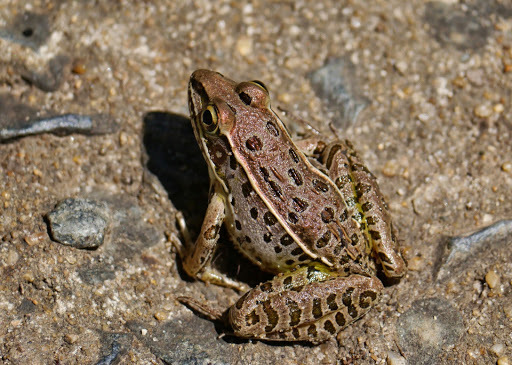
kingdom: Animalia
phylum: Chordata
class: Amphibia
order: Anura
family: Ranidae
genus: Lithobates
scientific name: Lithobates sphenocephalus
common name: Southern leopard frog
